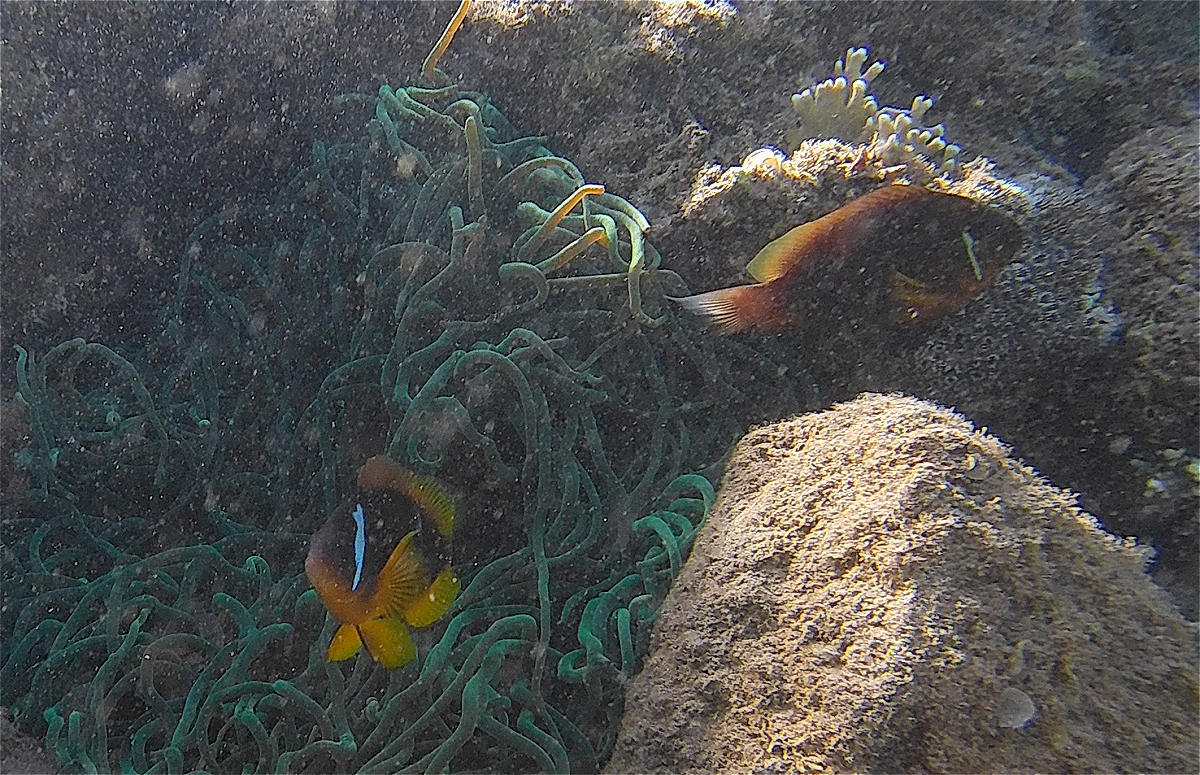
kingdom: Animalia
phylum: Chordata
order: Perciformes
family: Pomacentridae
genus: Amphiprion
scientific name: Amphiprion bicinctus
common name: Two-banded anemonefish
